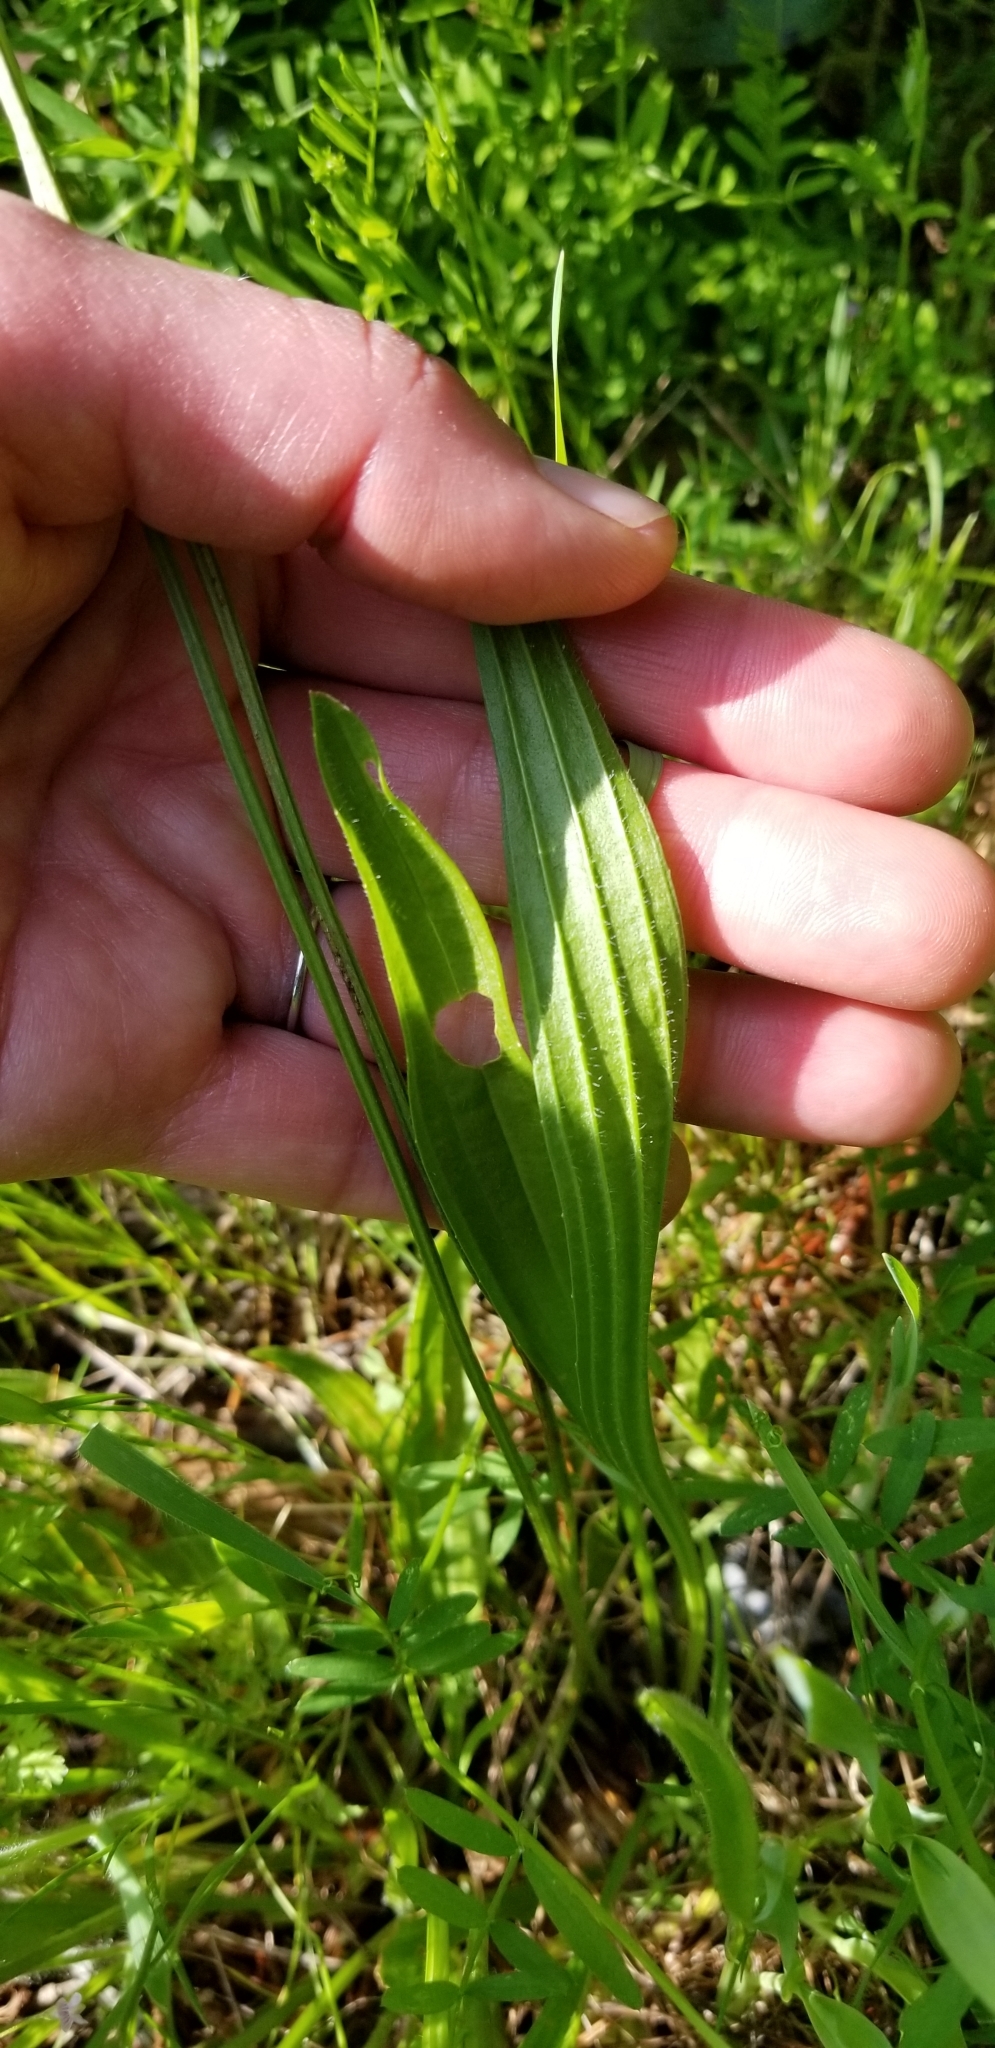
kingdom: Plantae
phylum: Tracheophyta
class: Magnoliopsida
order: Lamiales
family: Plantaginaceae
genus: Plantago
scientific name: Plantago lanceolata
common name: Ribwort plantain
